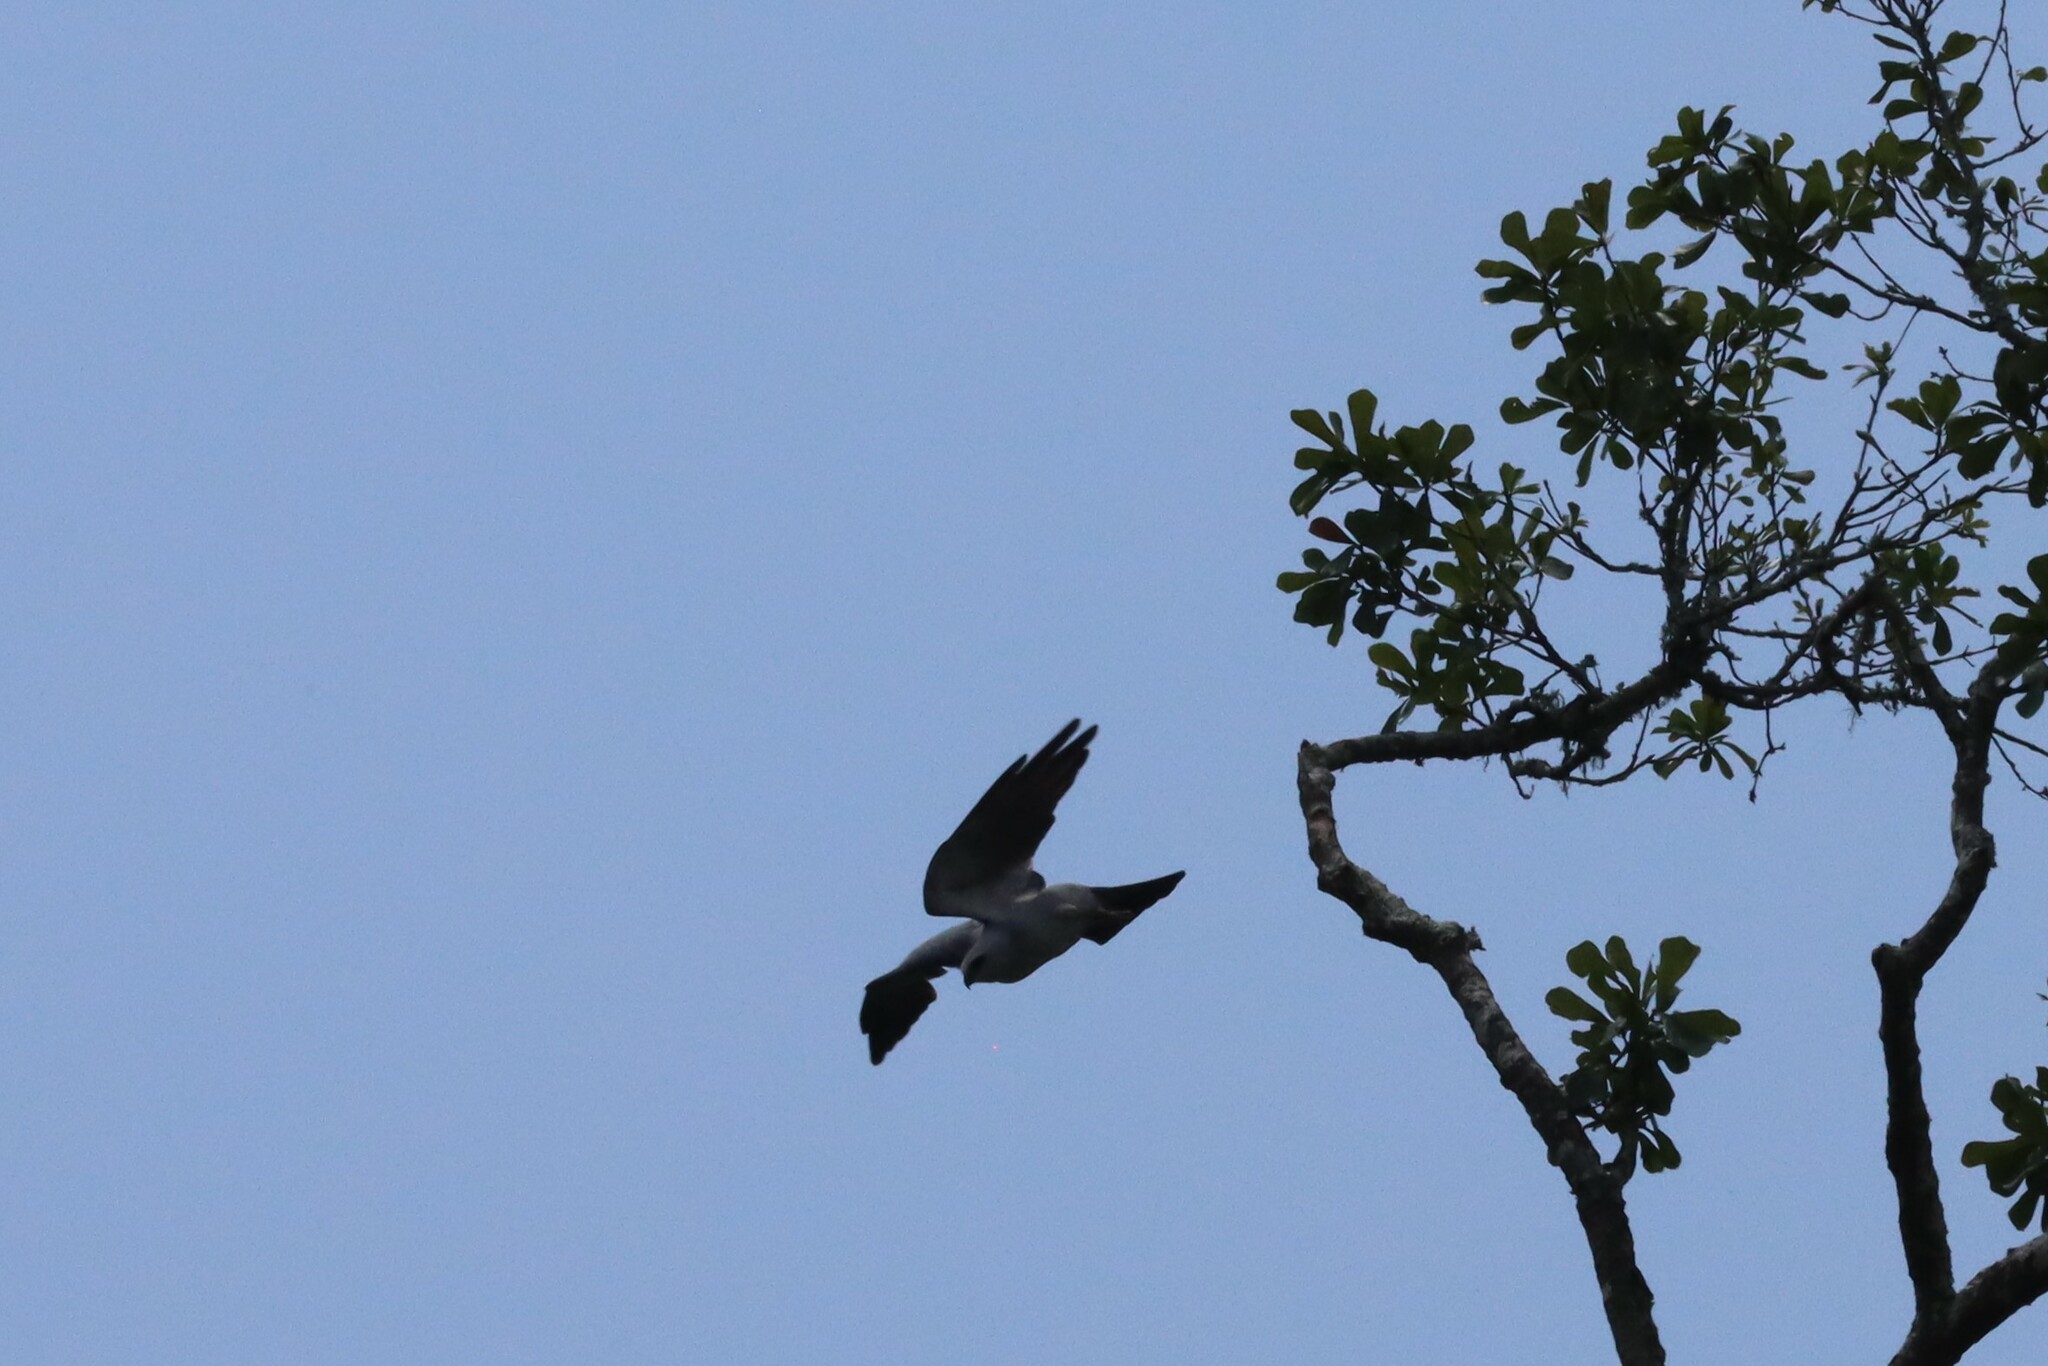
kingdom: Animalia
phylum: Chordata
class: Aves
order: Accipitriformes
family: Accipitridae
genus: Ictinia
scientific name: Ictinia mississippiensis
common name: Mississippi kite
